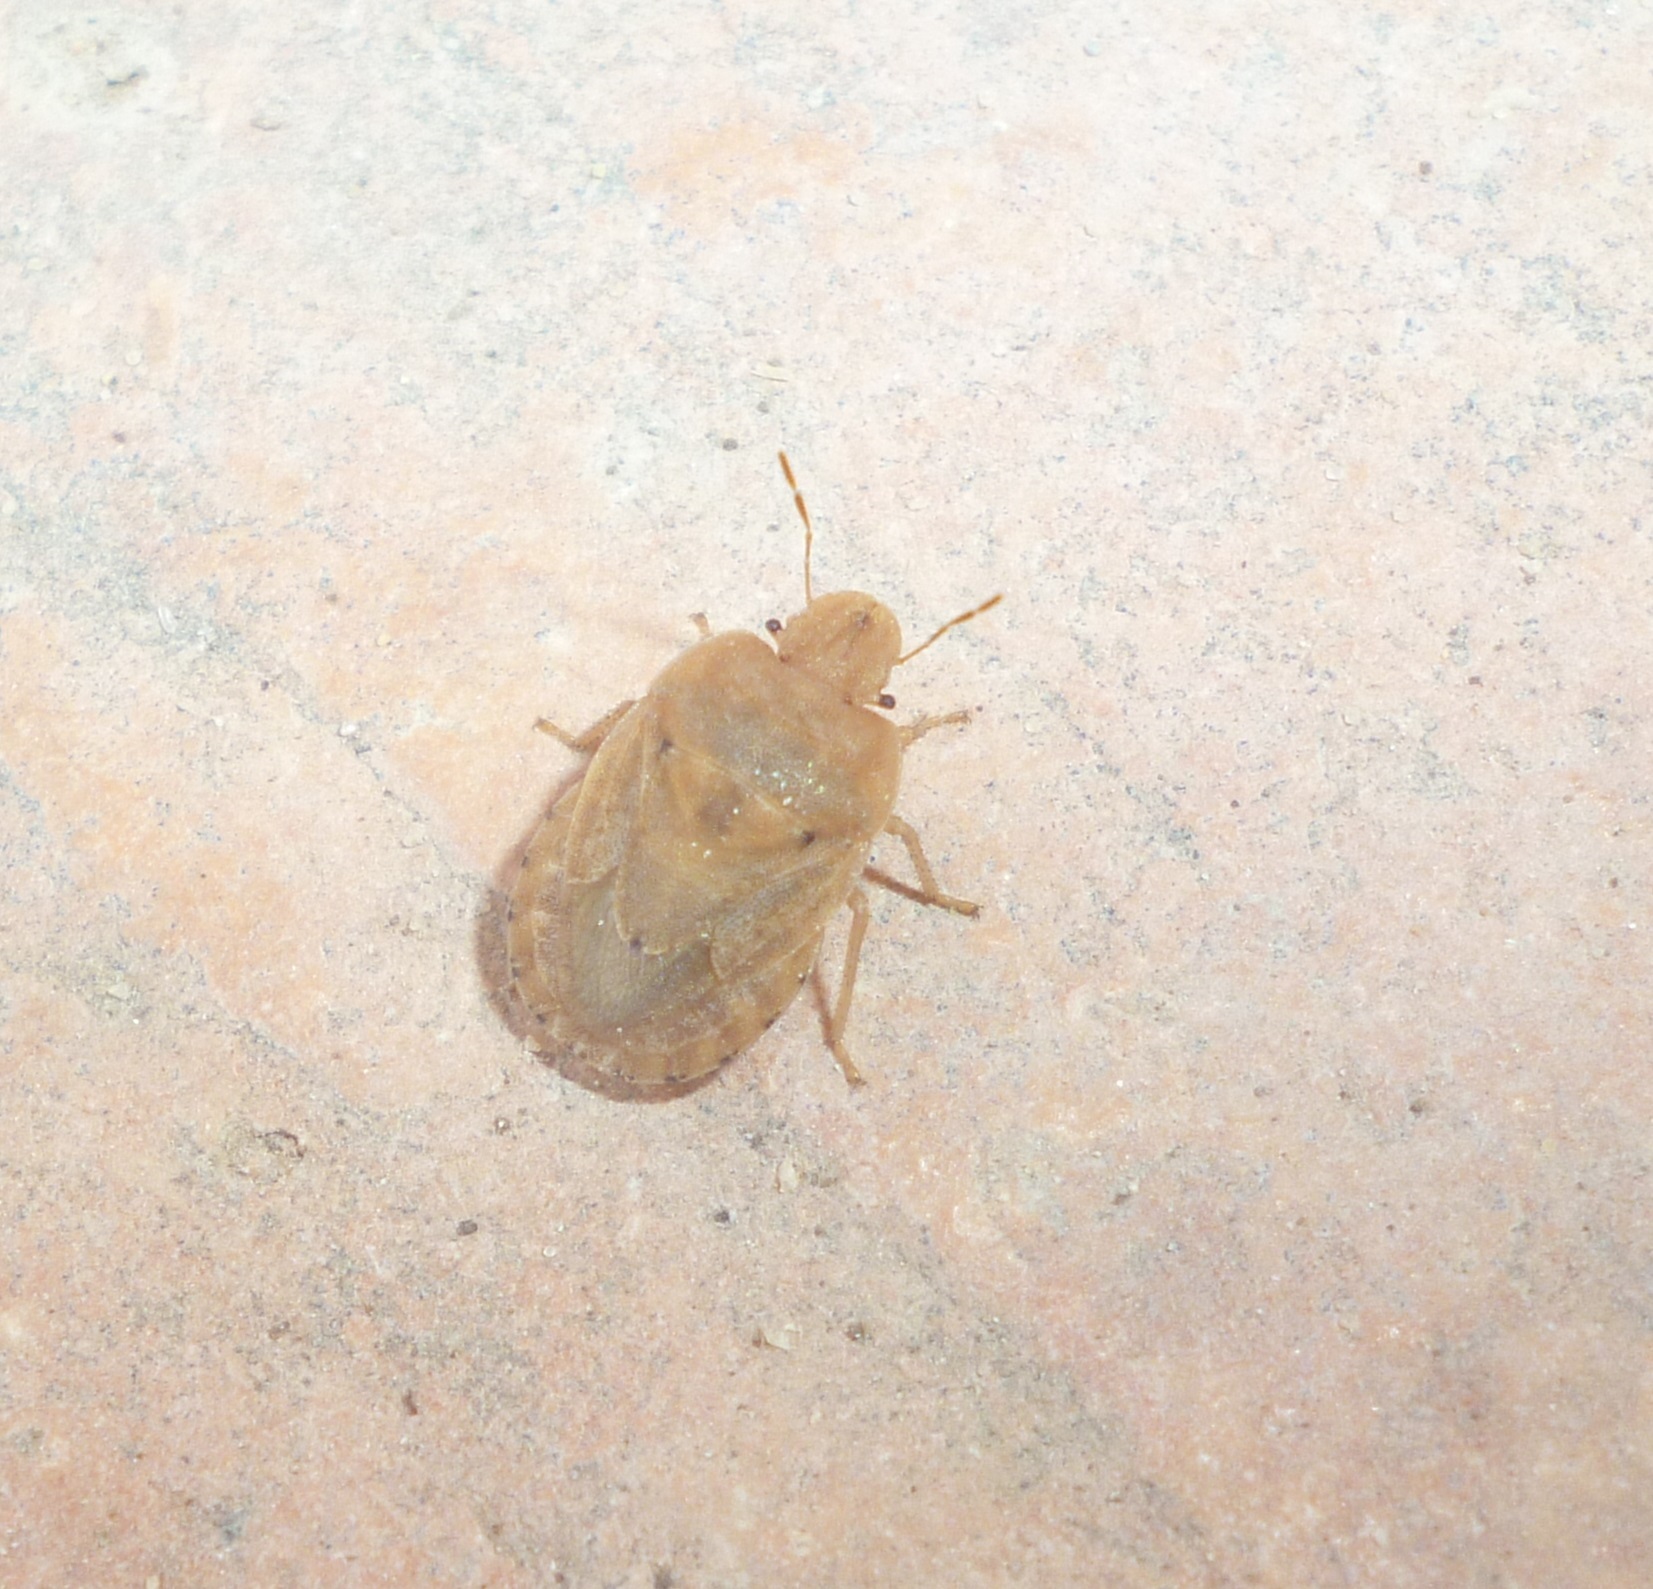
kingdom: Animalia
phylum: Arthropoda
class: Insecta
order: Hemiptera
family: Pentatomidae
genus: Sciocoris
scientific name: Sciocoris macrocephalus
